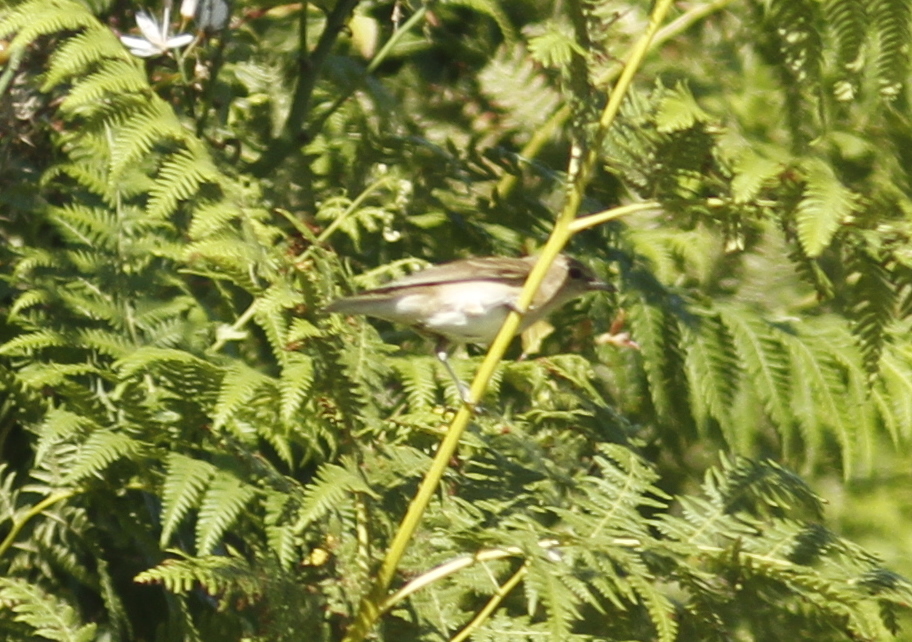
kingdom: Animalia
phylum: Chordata
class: Aves
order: Passeriformes
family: Sylviidae
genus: Sylvia
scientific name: Sylvia borin
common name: Garden warbler
